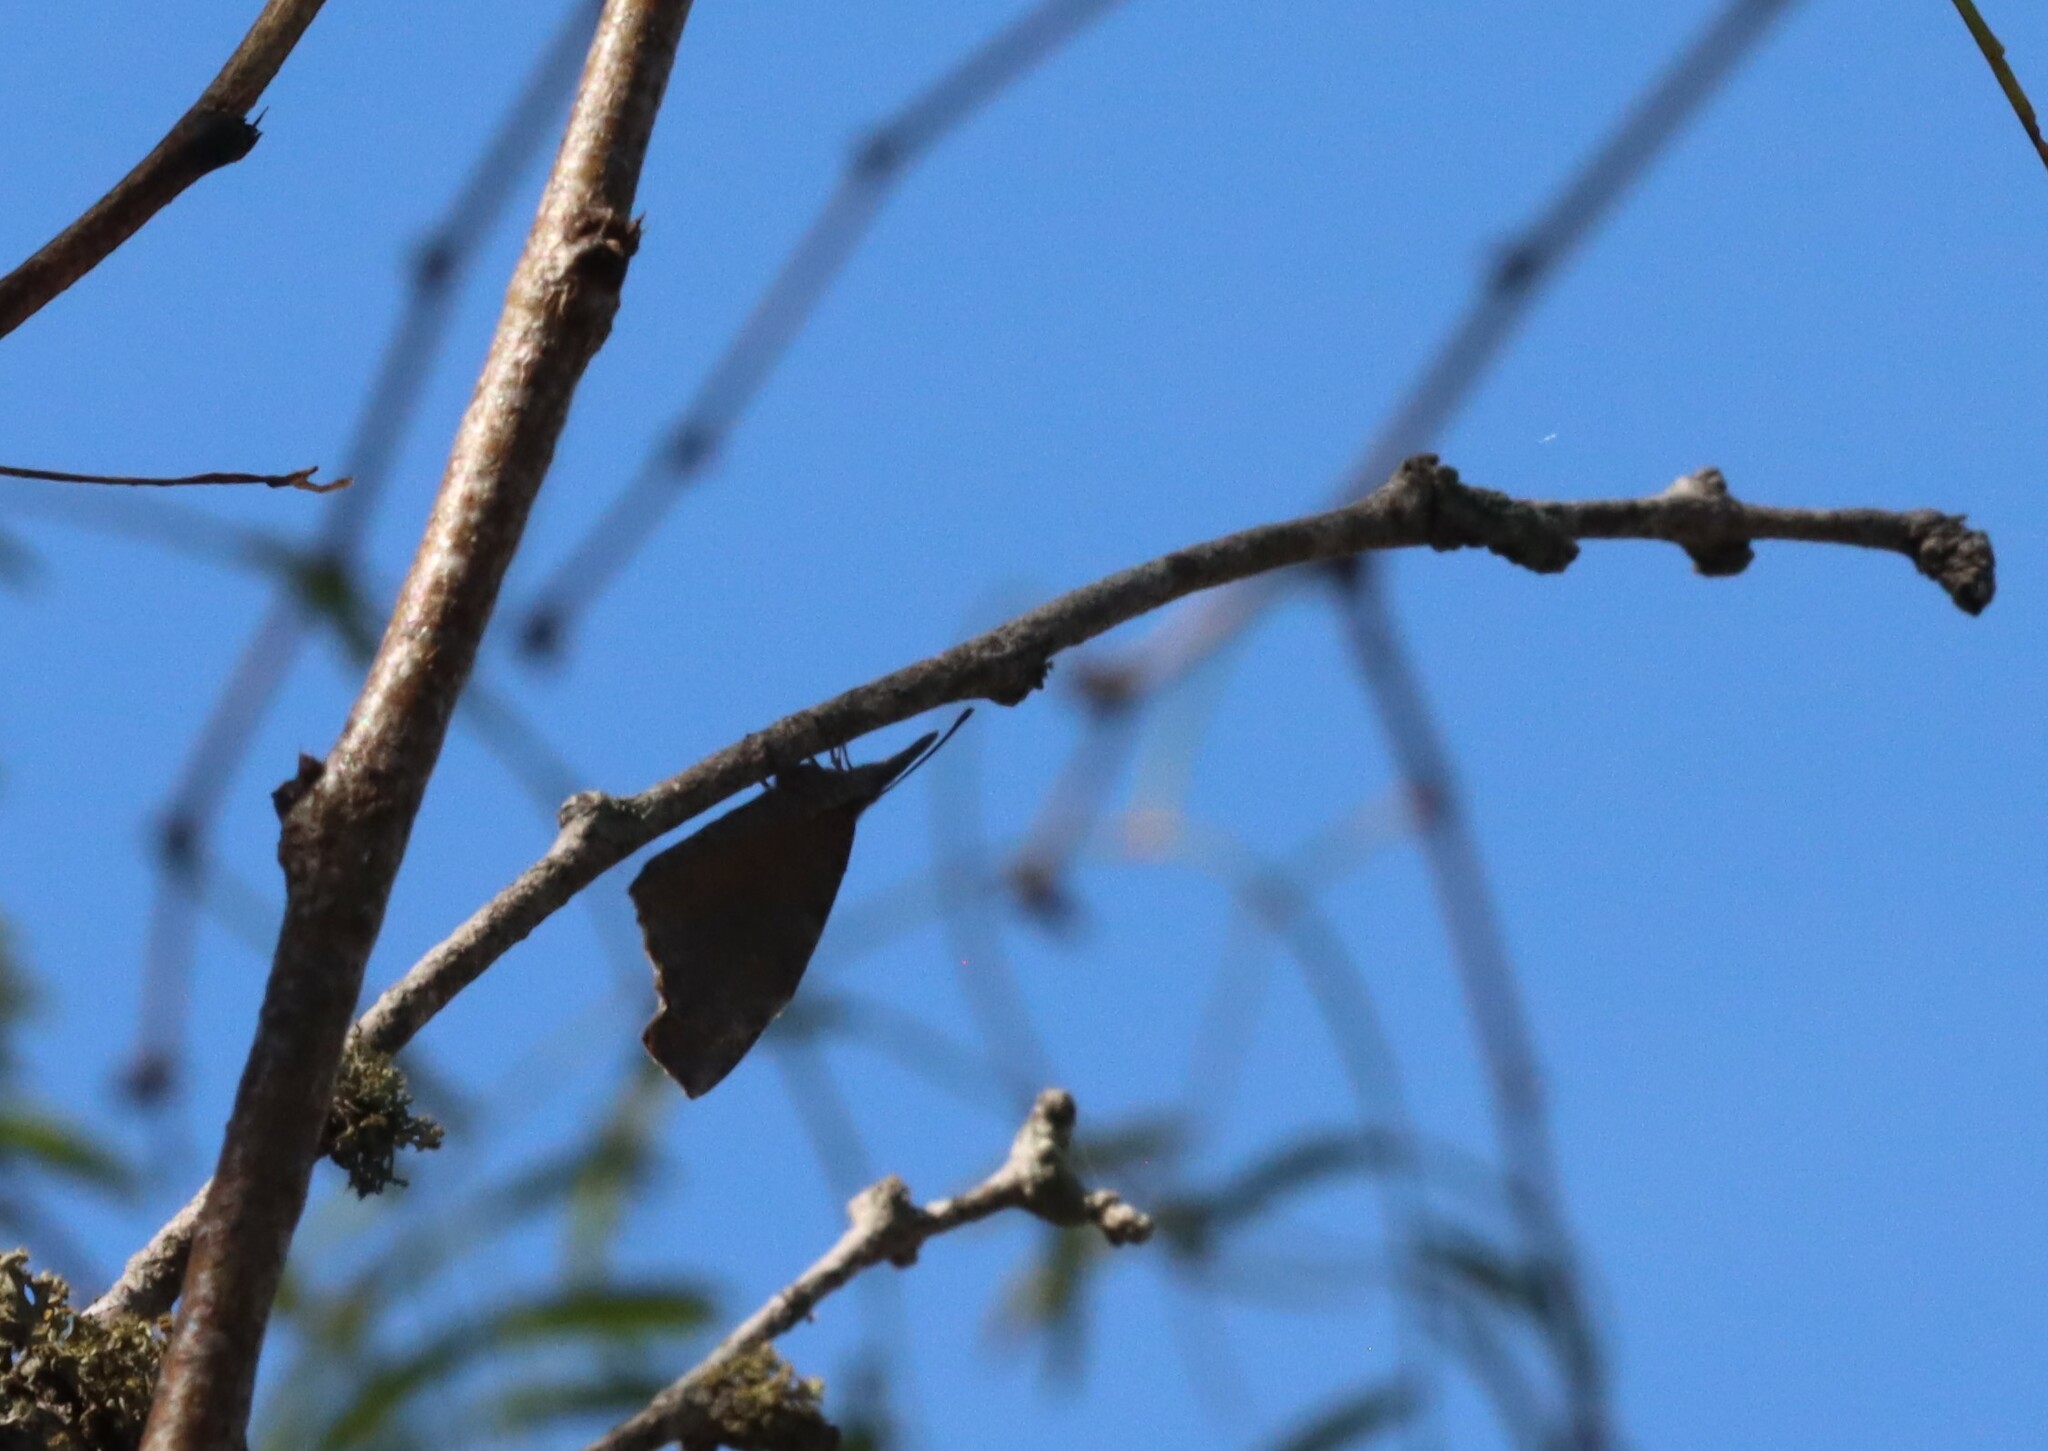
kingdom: Animalia
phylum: Arthropoda
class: Insecta
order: Lepidoptera
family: Nymphalidae
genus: Libytheana
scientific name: Libytheana carinenta
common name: American snout
